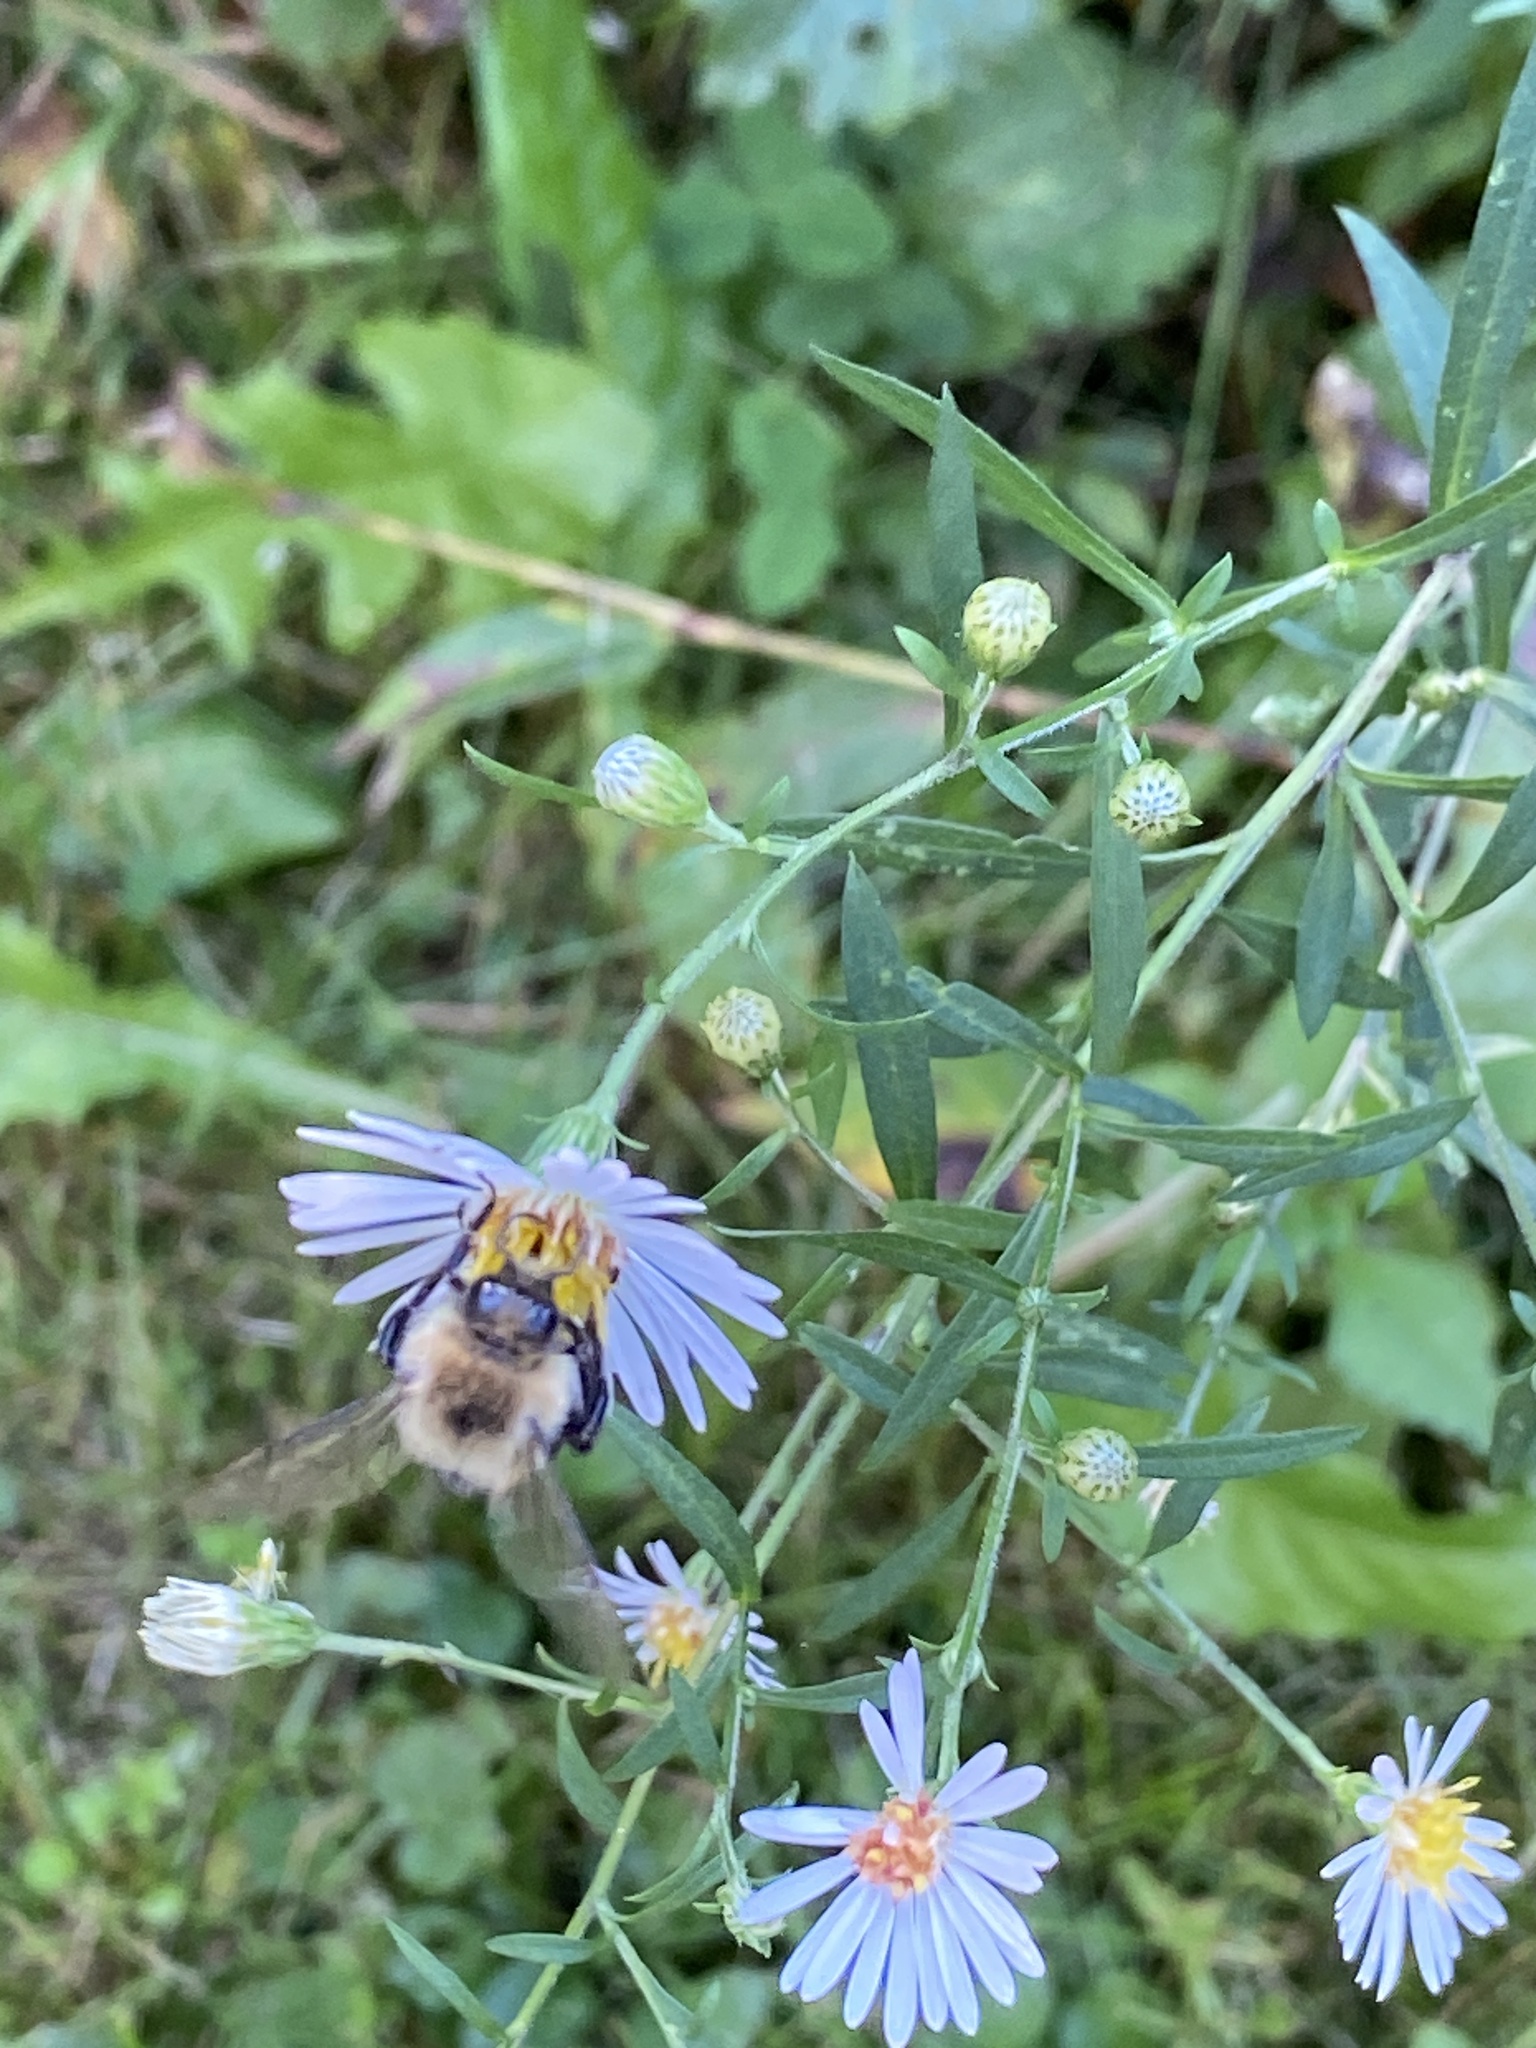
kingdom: Animalia
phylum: Arthropoda
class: Insecta
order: Hymenoptera
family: Apidae
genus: Bombus
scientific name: Bombus impatiens
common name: Common eastern bumble bee
